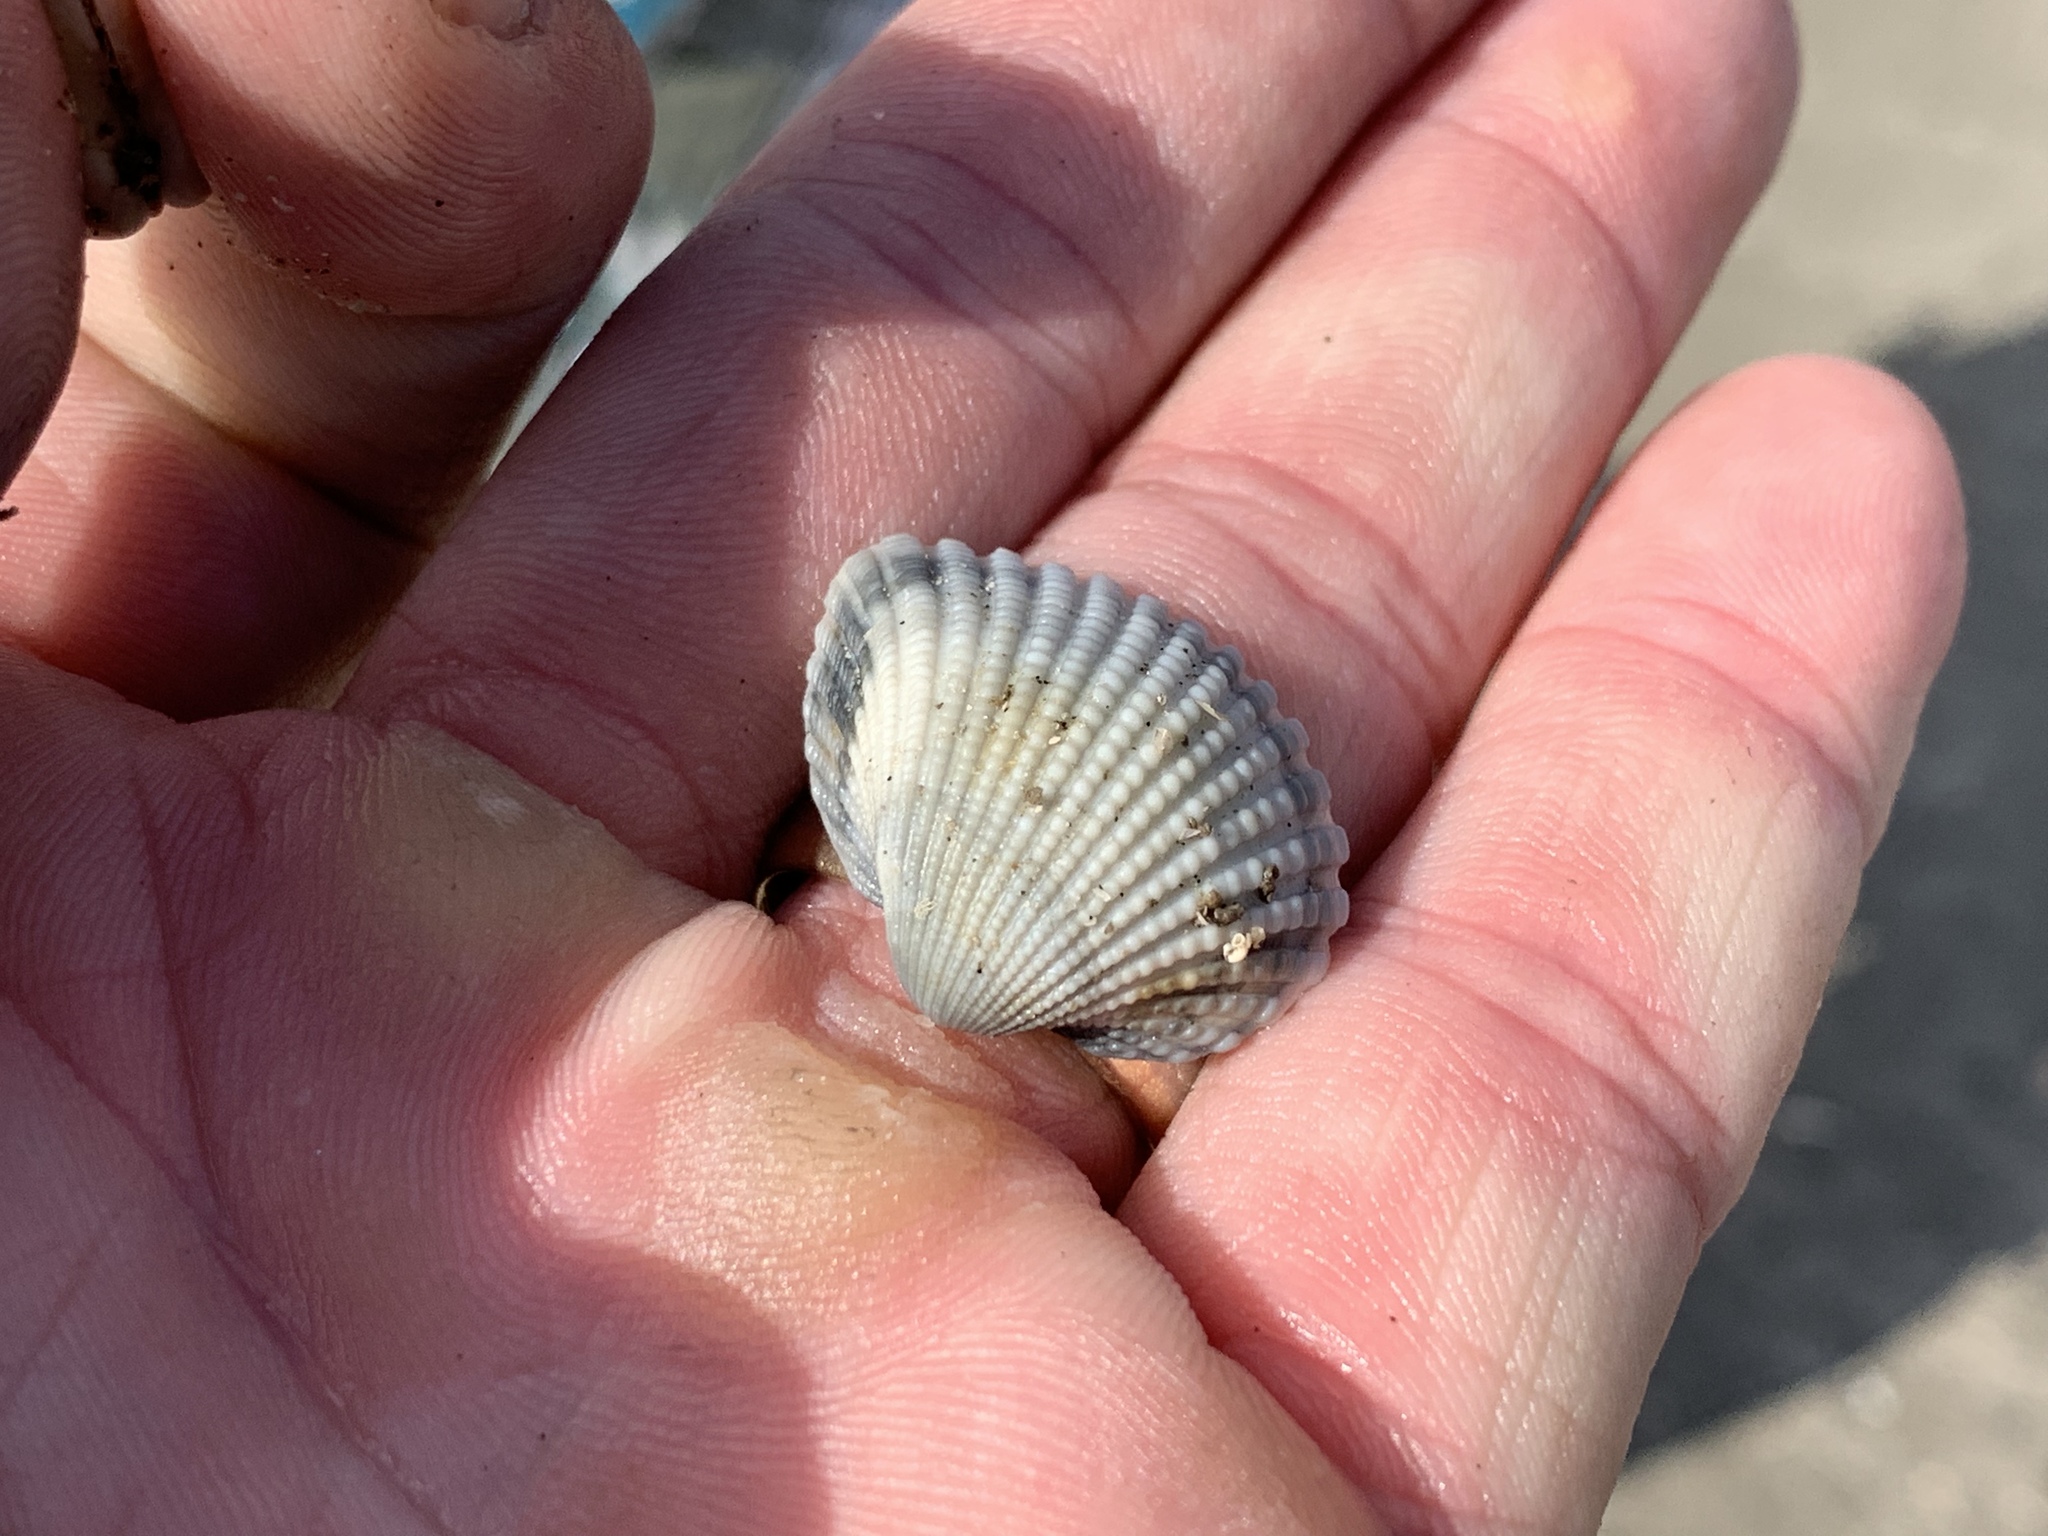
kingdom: Animalia
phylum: Mollusca
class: Bivalvia
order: Arcida
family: Arcidae
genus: Anadara
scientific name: Anadara brasiliana
